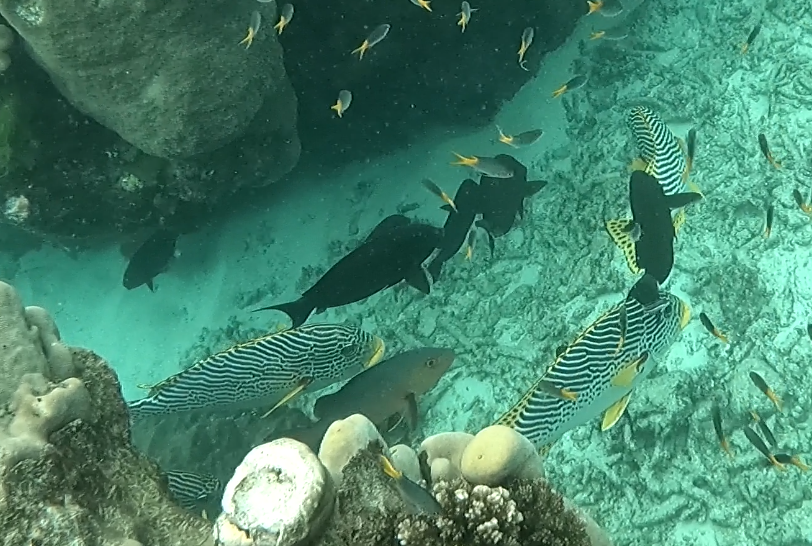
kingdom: Animalia
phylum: Chordata
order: Perciformes
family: Haemulidae
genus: Plectorhinchus
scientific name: Plectorhinchus lineatus
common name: Goldman's sweetlips
